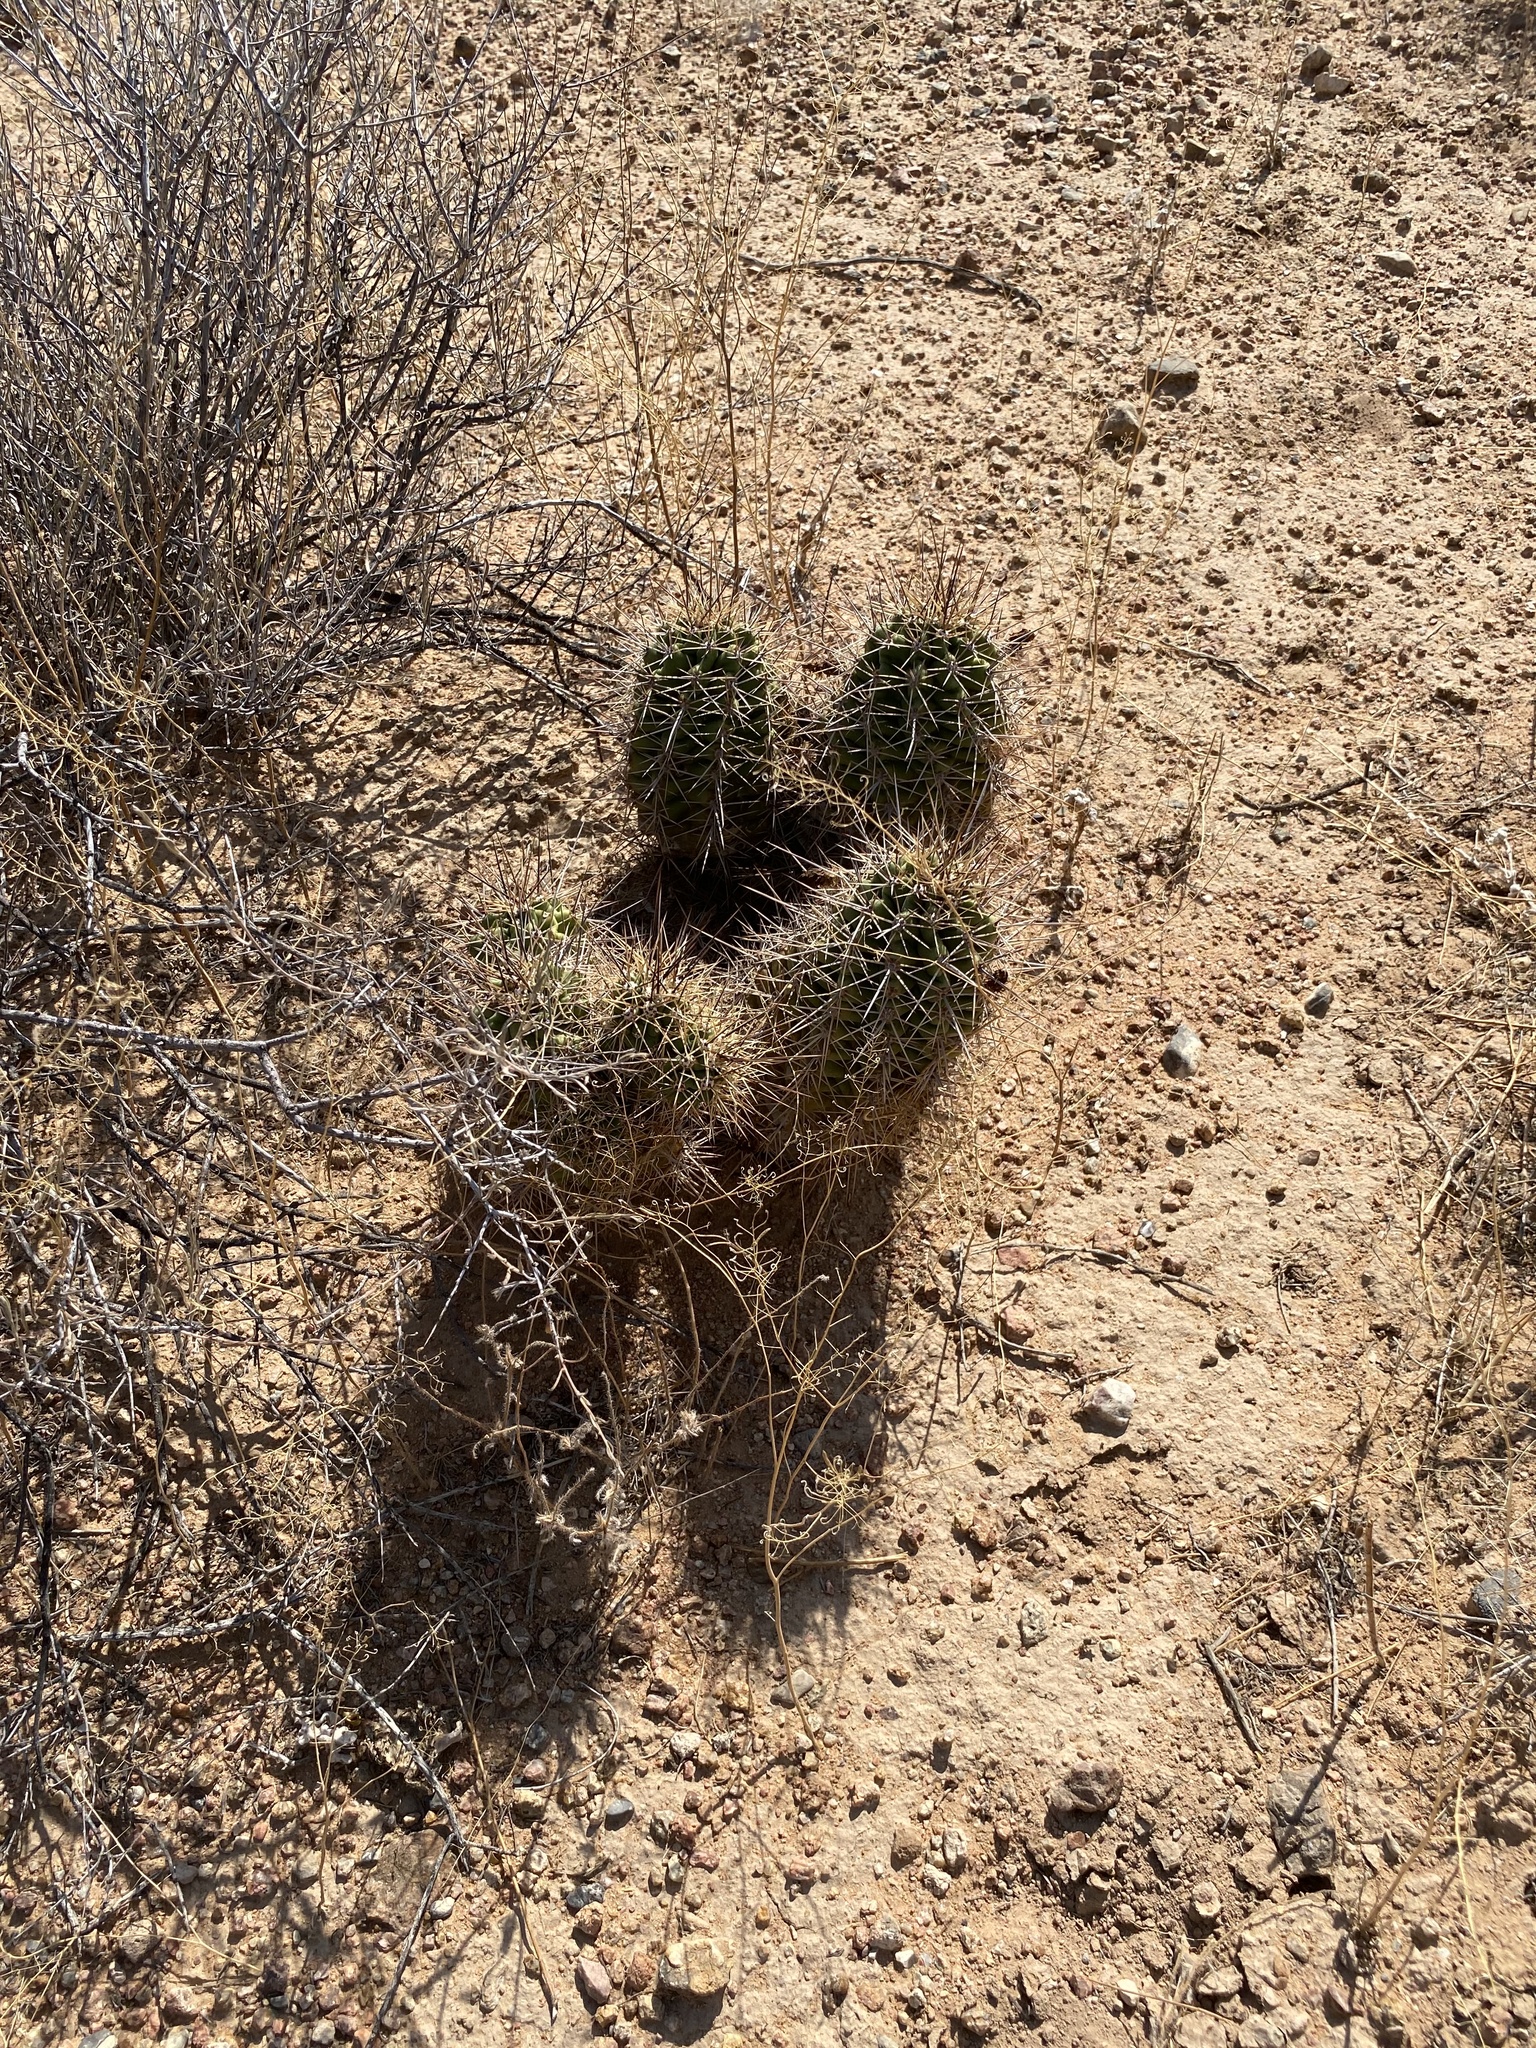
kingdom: Plantae
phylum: Tracheophyta
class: Magnoliopsida
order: Caryophyllales
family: Cactaceae
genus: Echinocereus
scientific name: Echinocereus coccineus
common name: Scarlet hedgehog cactus
